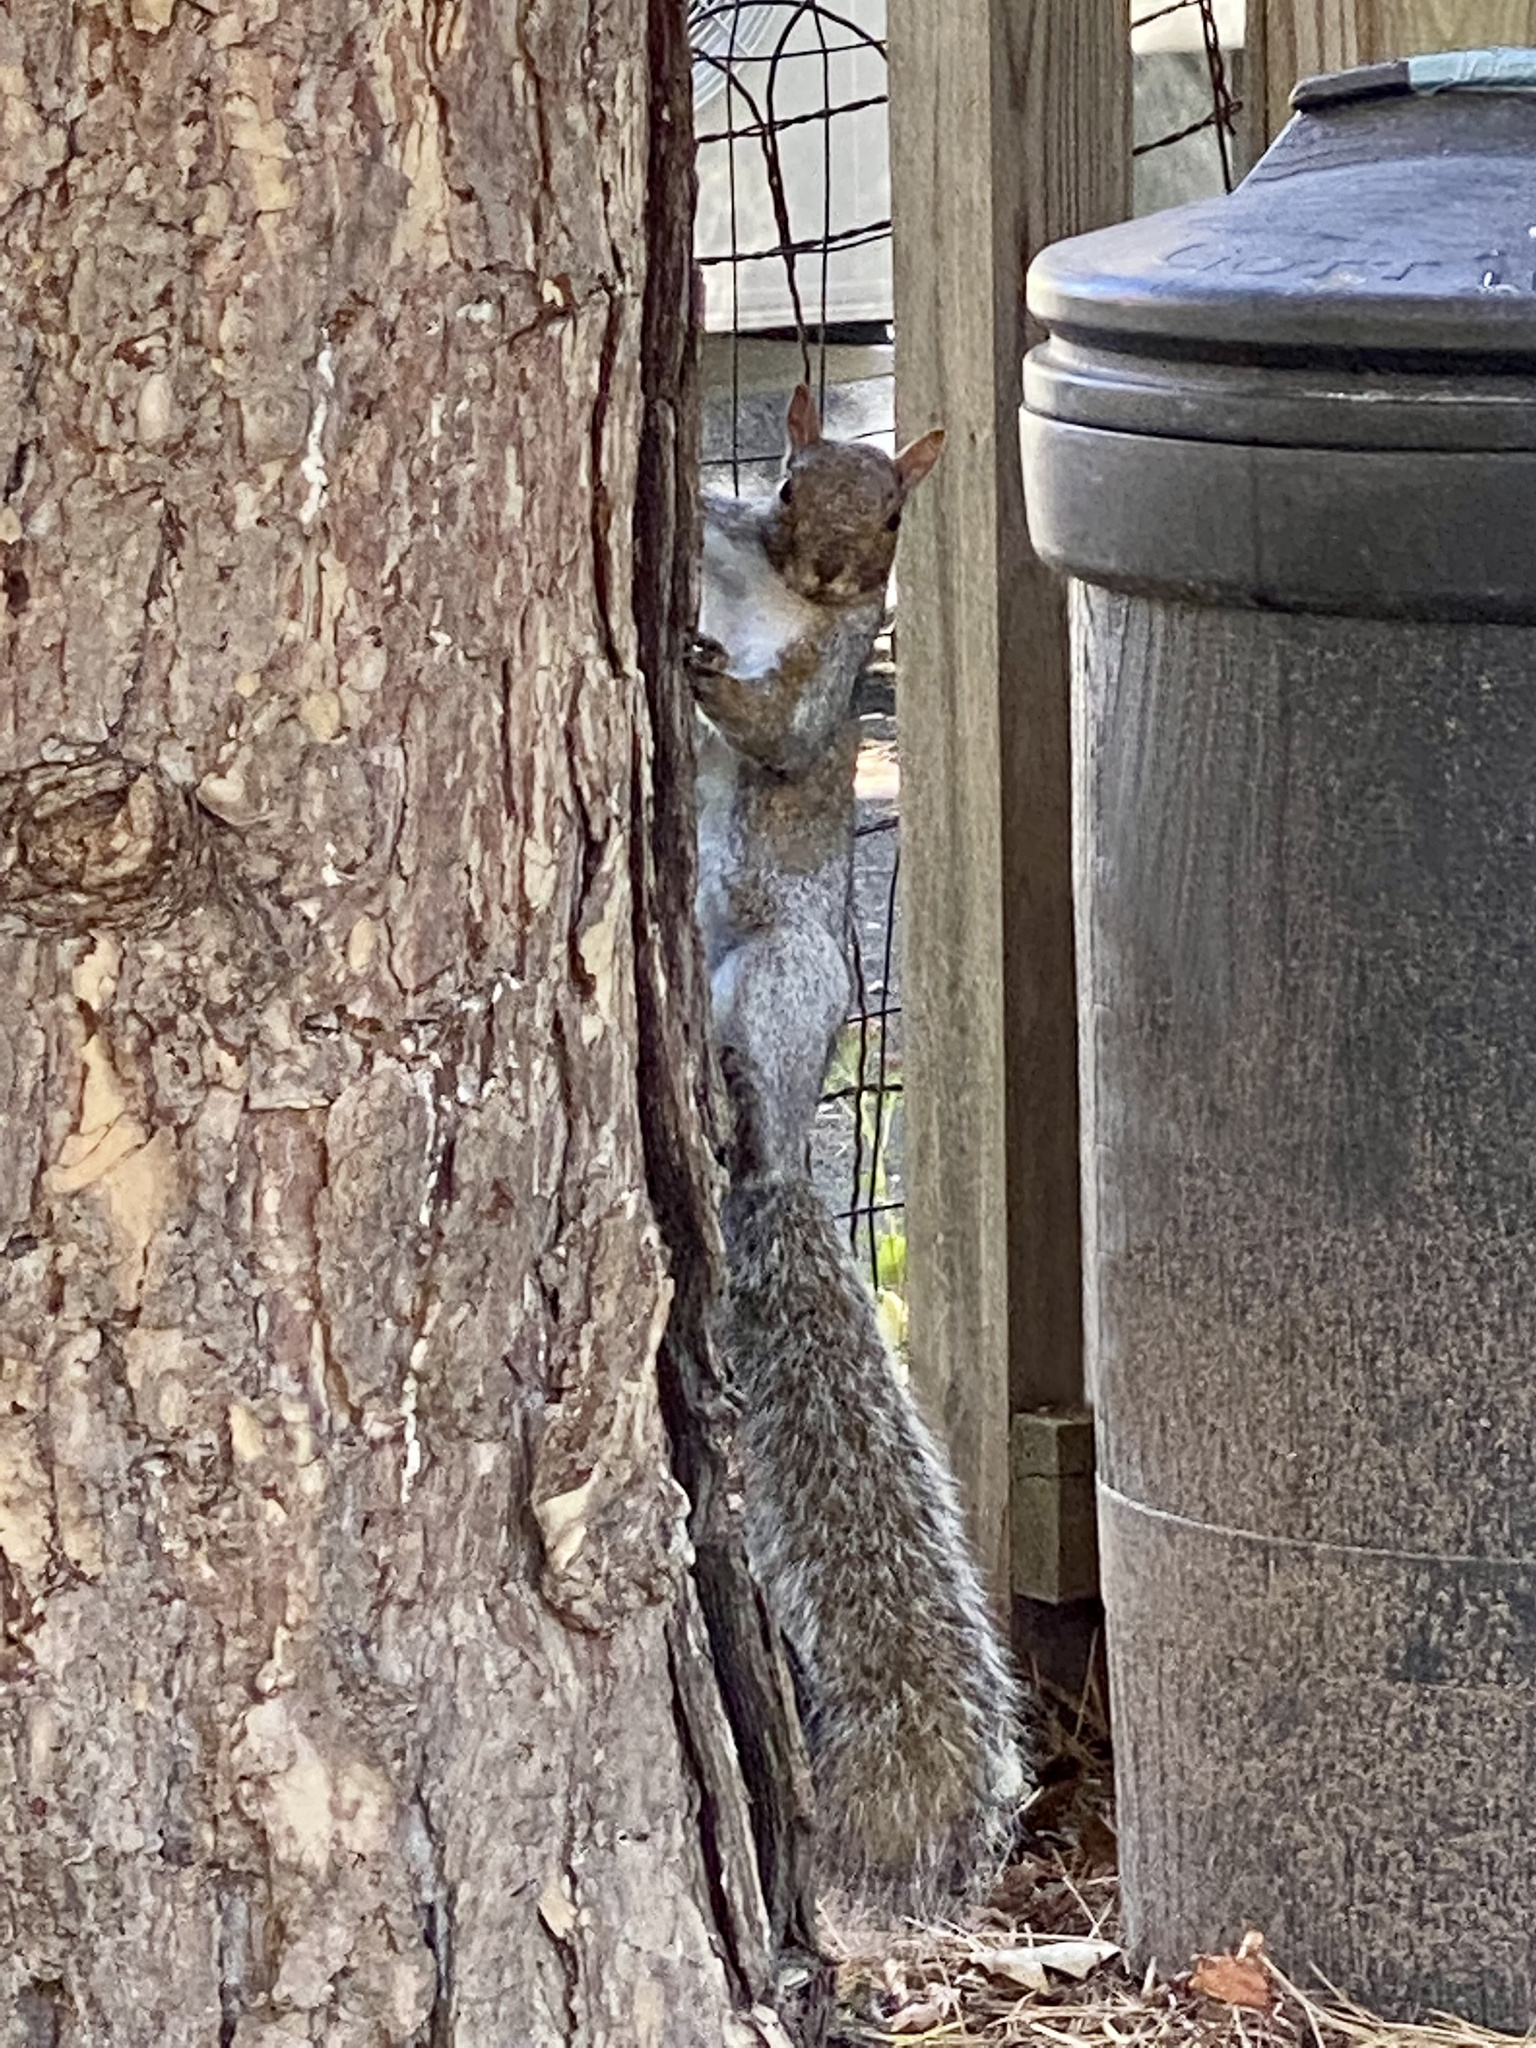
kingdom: Animalia
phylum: Chordata
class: Mammalia
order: Rodentia
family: Sciuridae
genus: Sciurus
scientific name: Sciurus carolinensis
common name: Eastern gray squirrel
